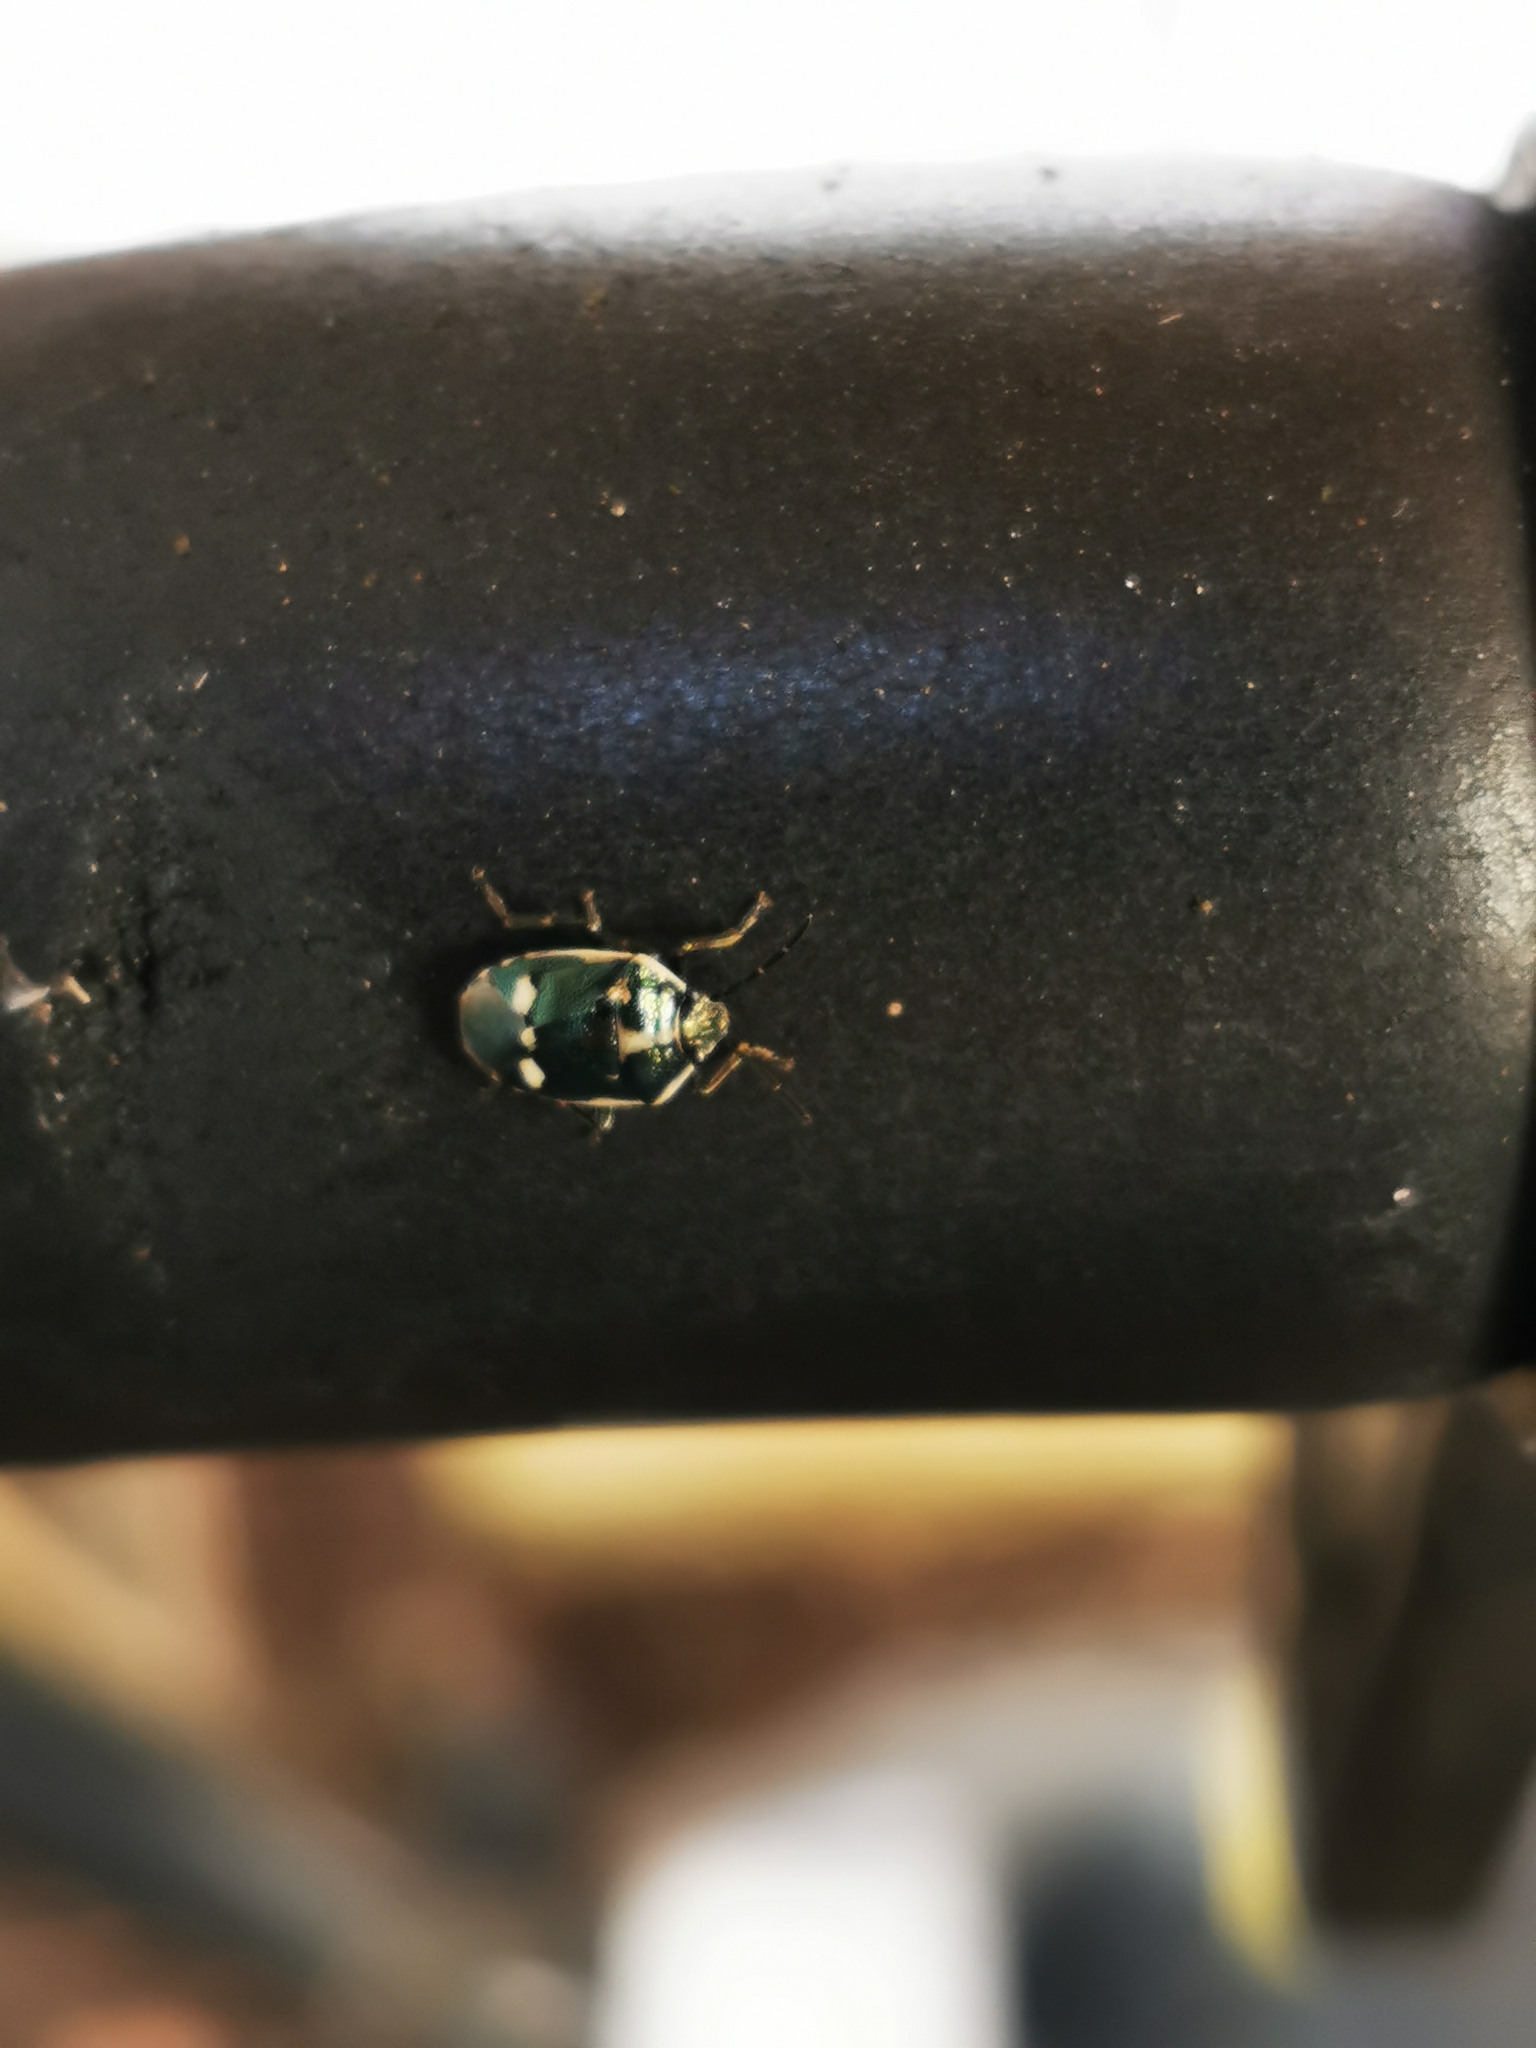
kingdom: Animalia
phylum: Arthropoda
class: Insecta
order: Hemiptera
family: Pentatomidae
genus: Eurydema
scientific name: Eurydema oleracea
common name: Cabbage bug
